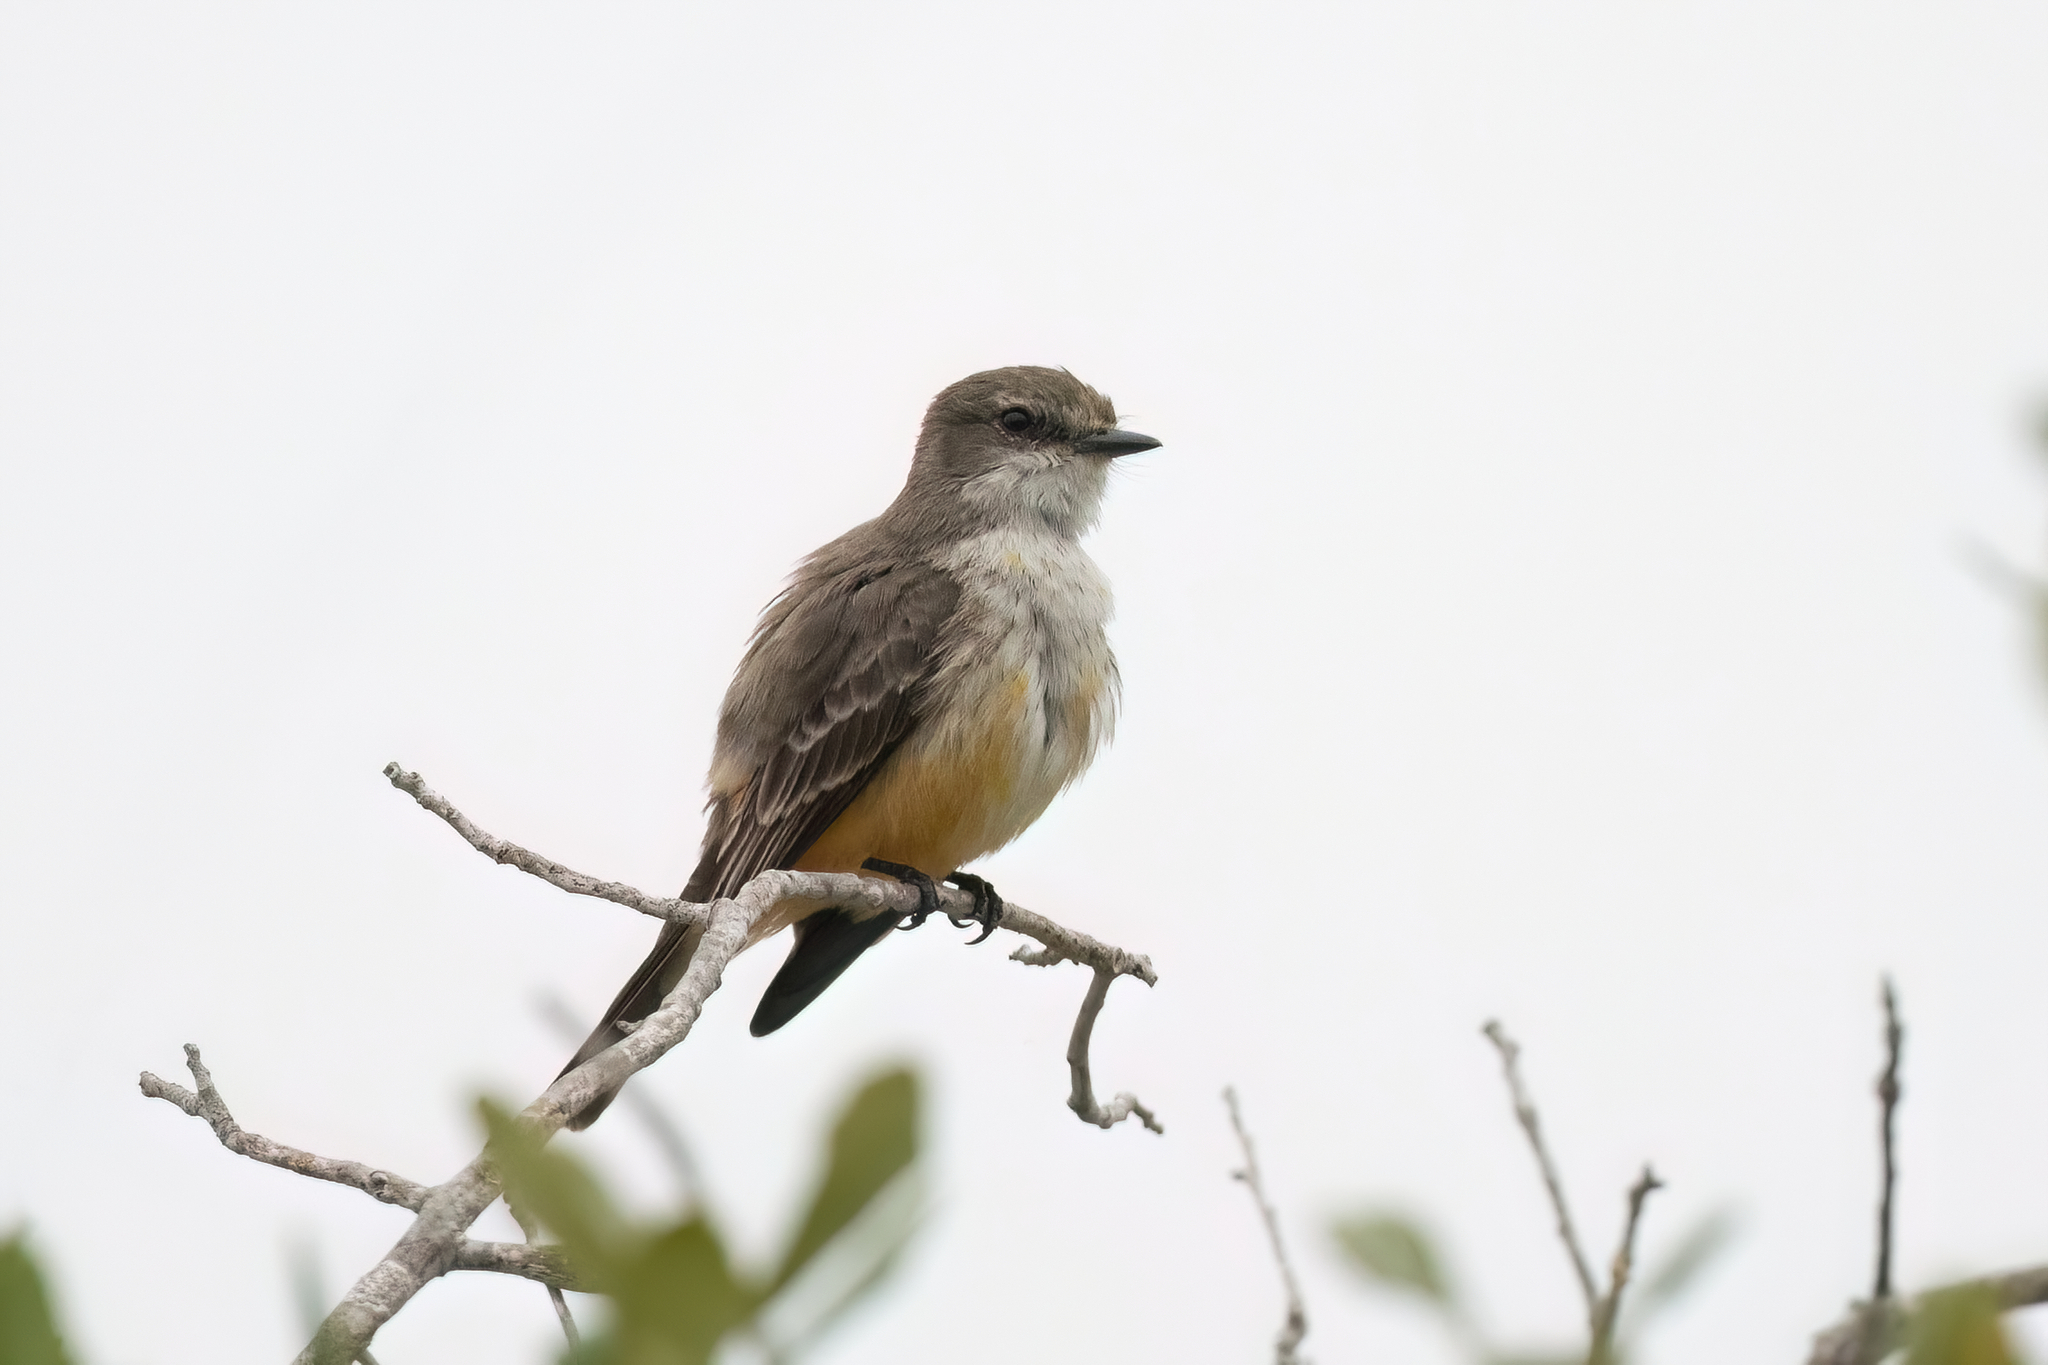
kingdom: Animalia
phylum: Chordata
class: Aves
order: Passeriformes
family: Tyrannidae
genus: Pyrocephalus
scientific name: Pyrocephalus rubinus
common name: Vermilion flycatcher
